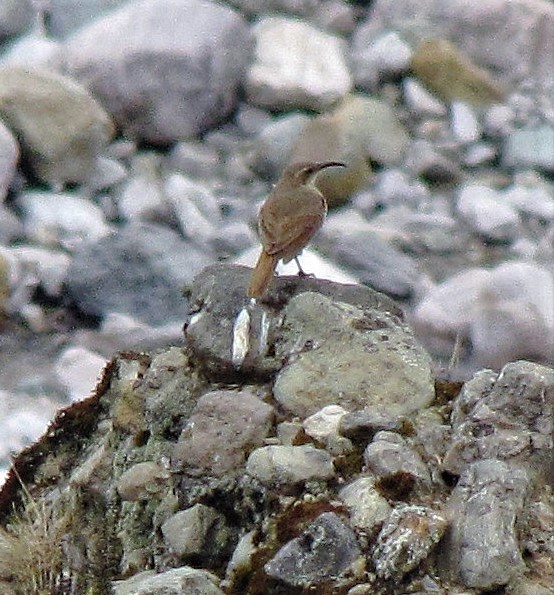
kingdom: Animalia
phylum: Chordata
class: Aves
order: Passeriformes
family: Furnariidae
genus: Upucerthia
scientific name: Upucerthia validirostris
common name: Buff-breasted earthcreeper
